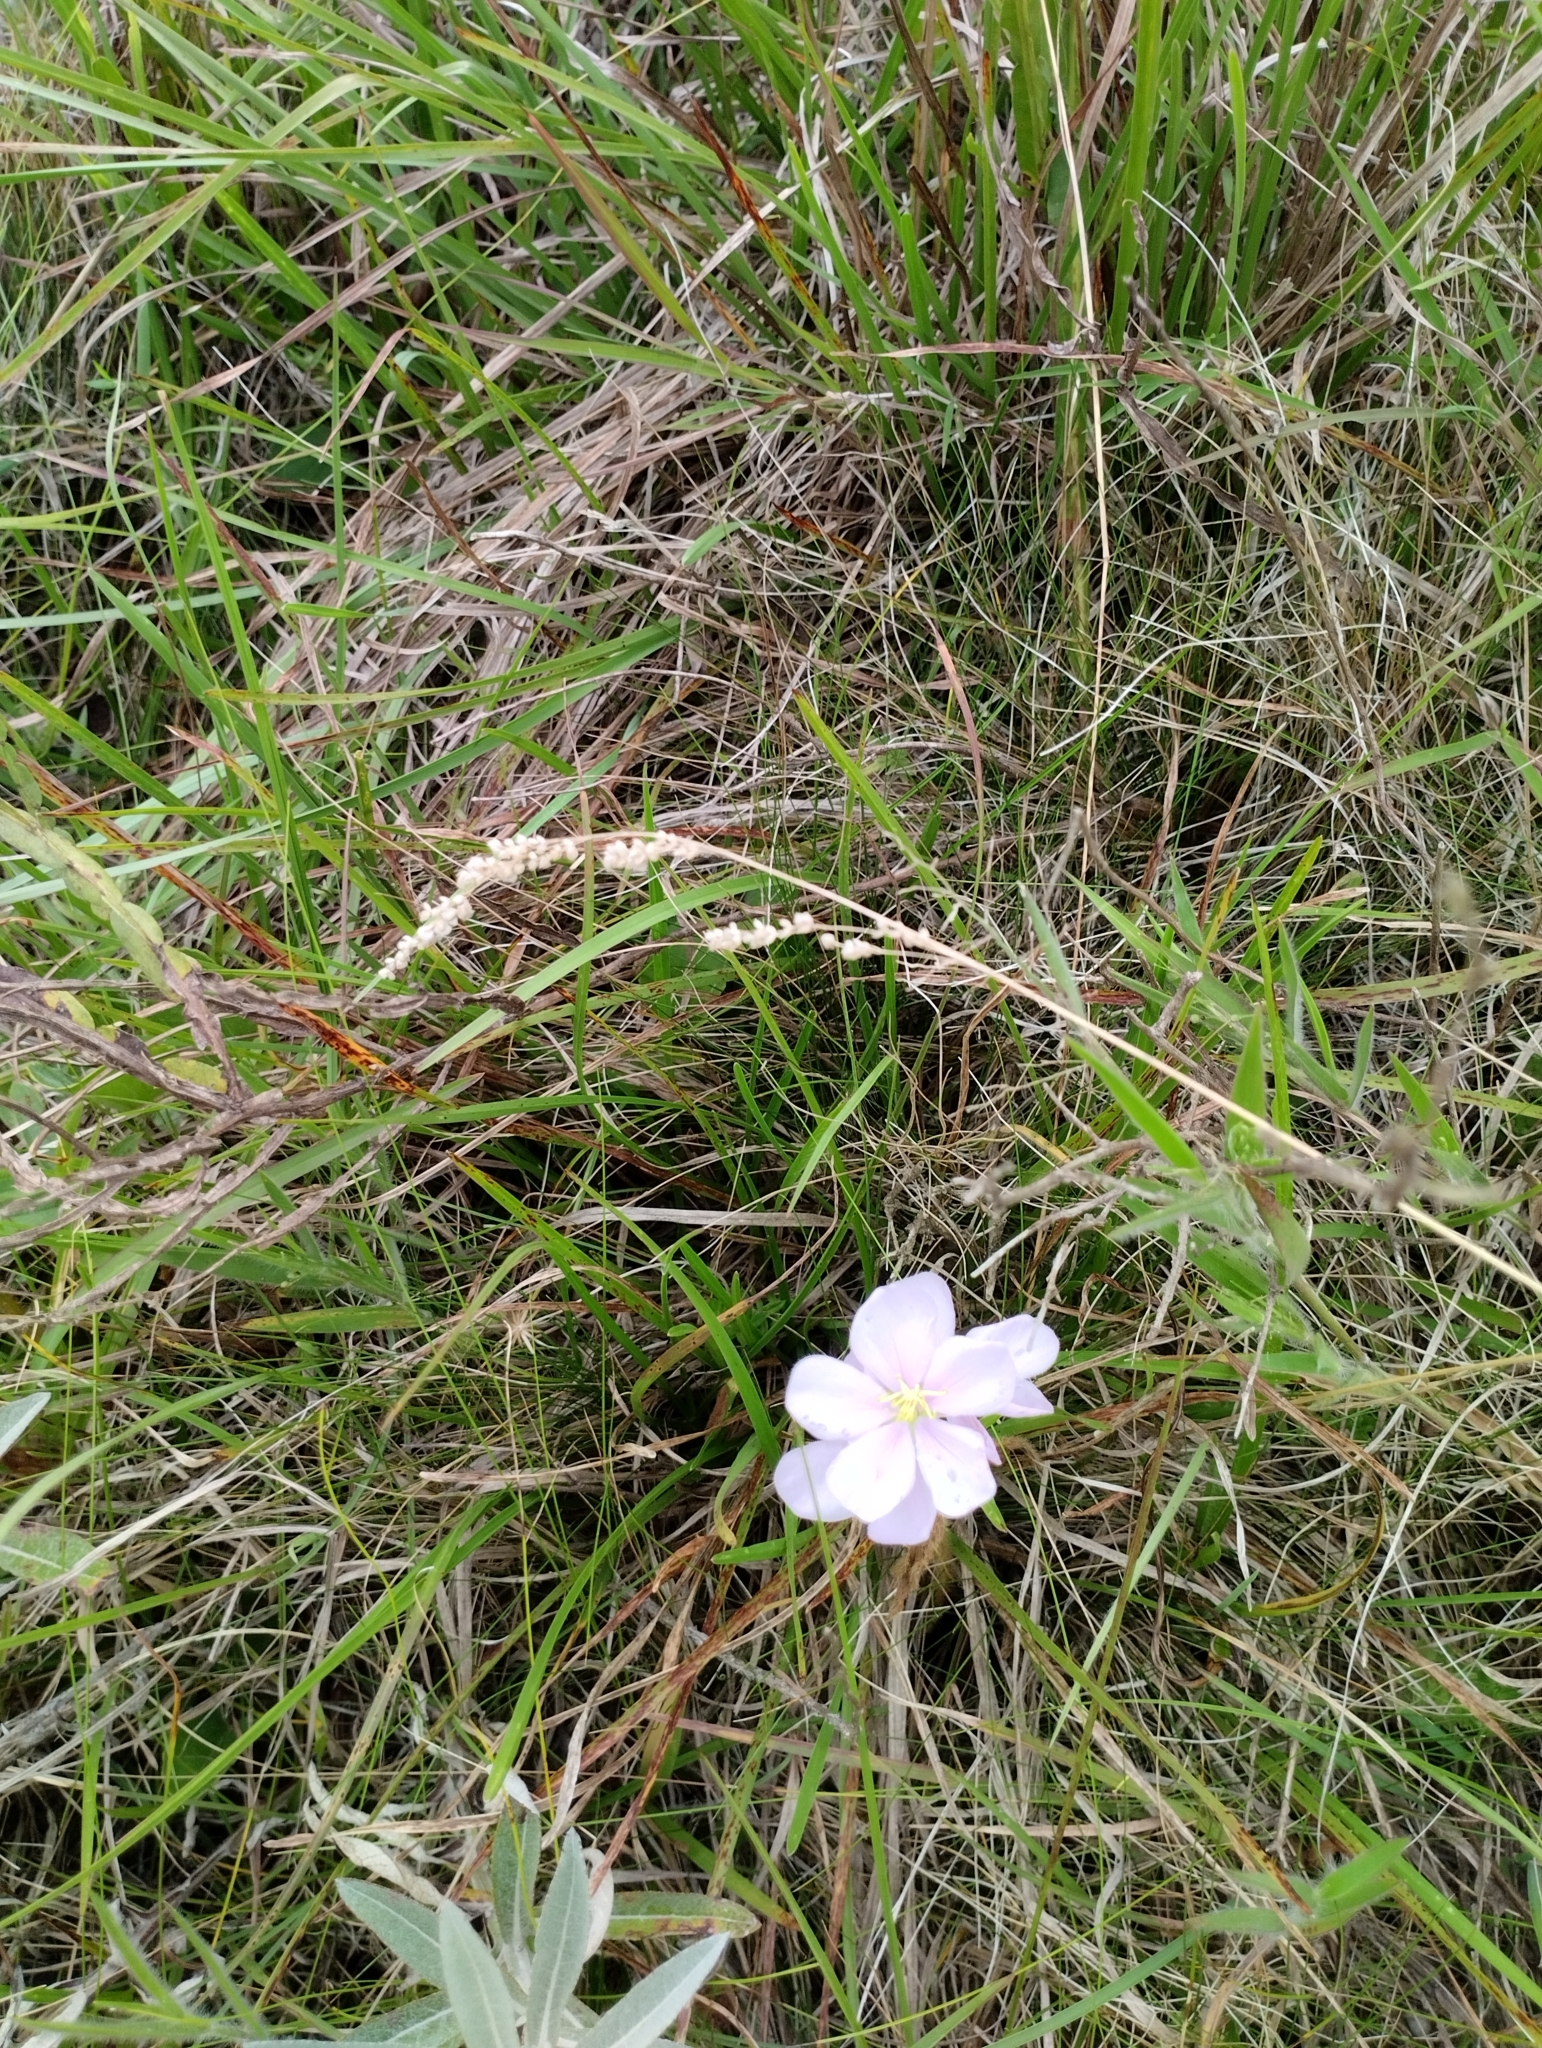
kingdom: Plantae
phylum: Tracheophyta
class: Magnoliopsida
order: Myrtales
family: Melastomataceae
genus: Chaetogastra
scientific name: Chaetogastra gracilis
